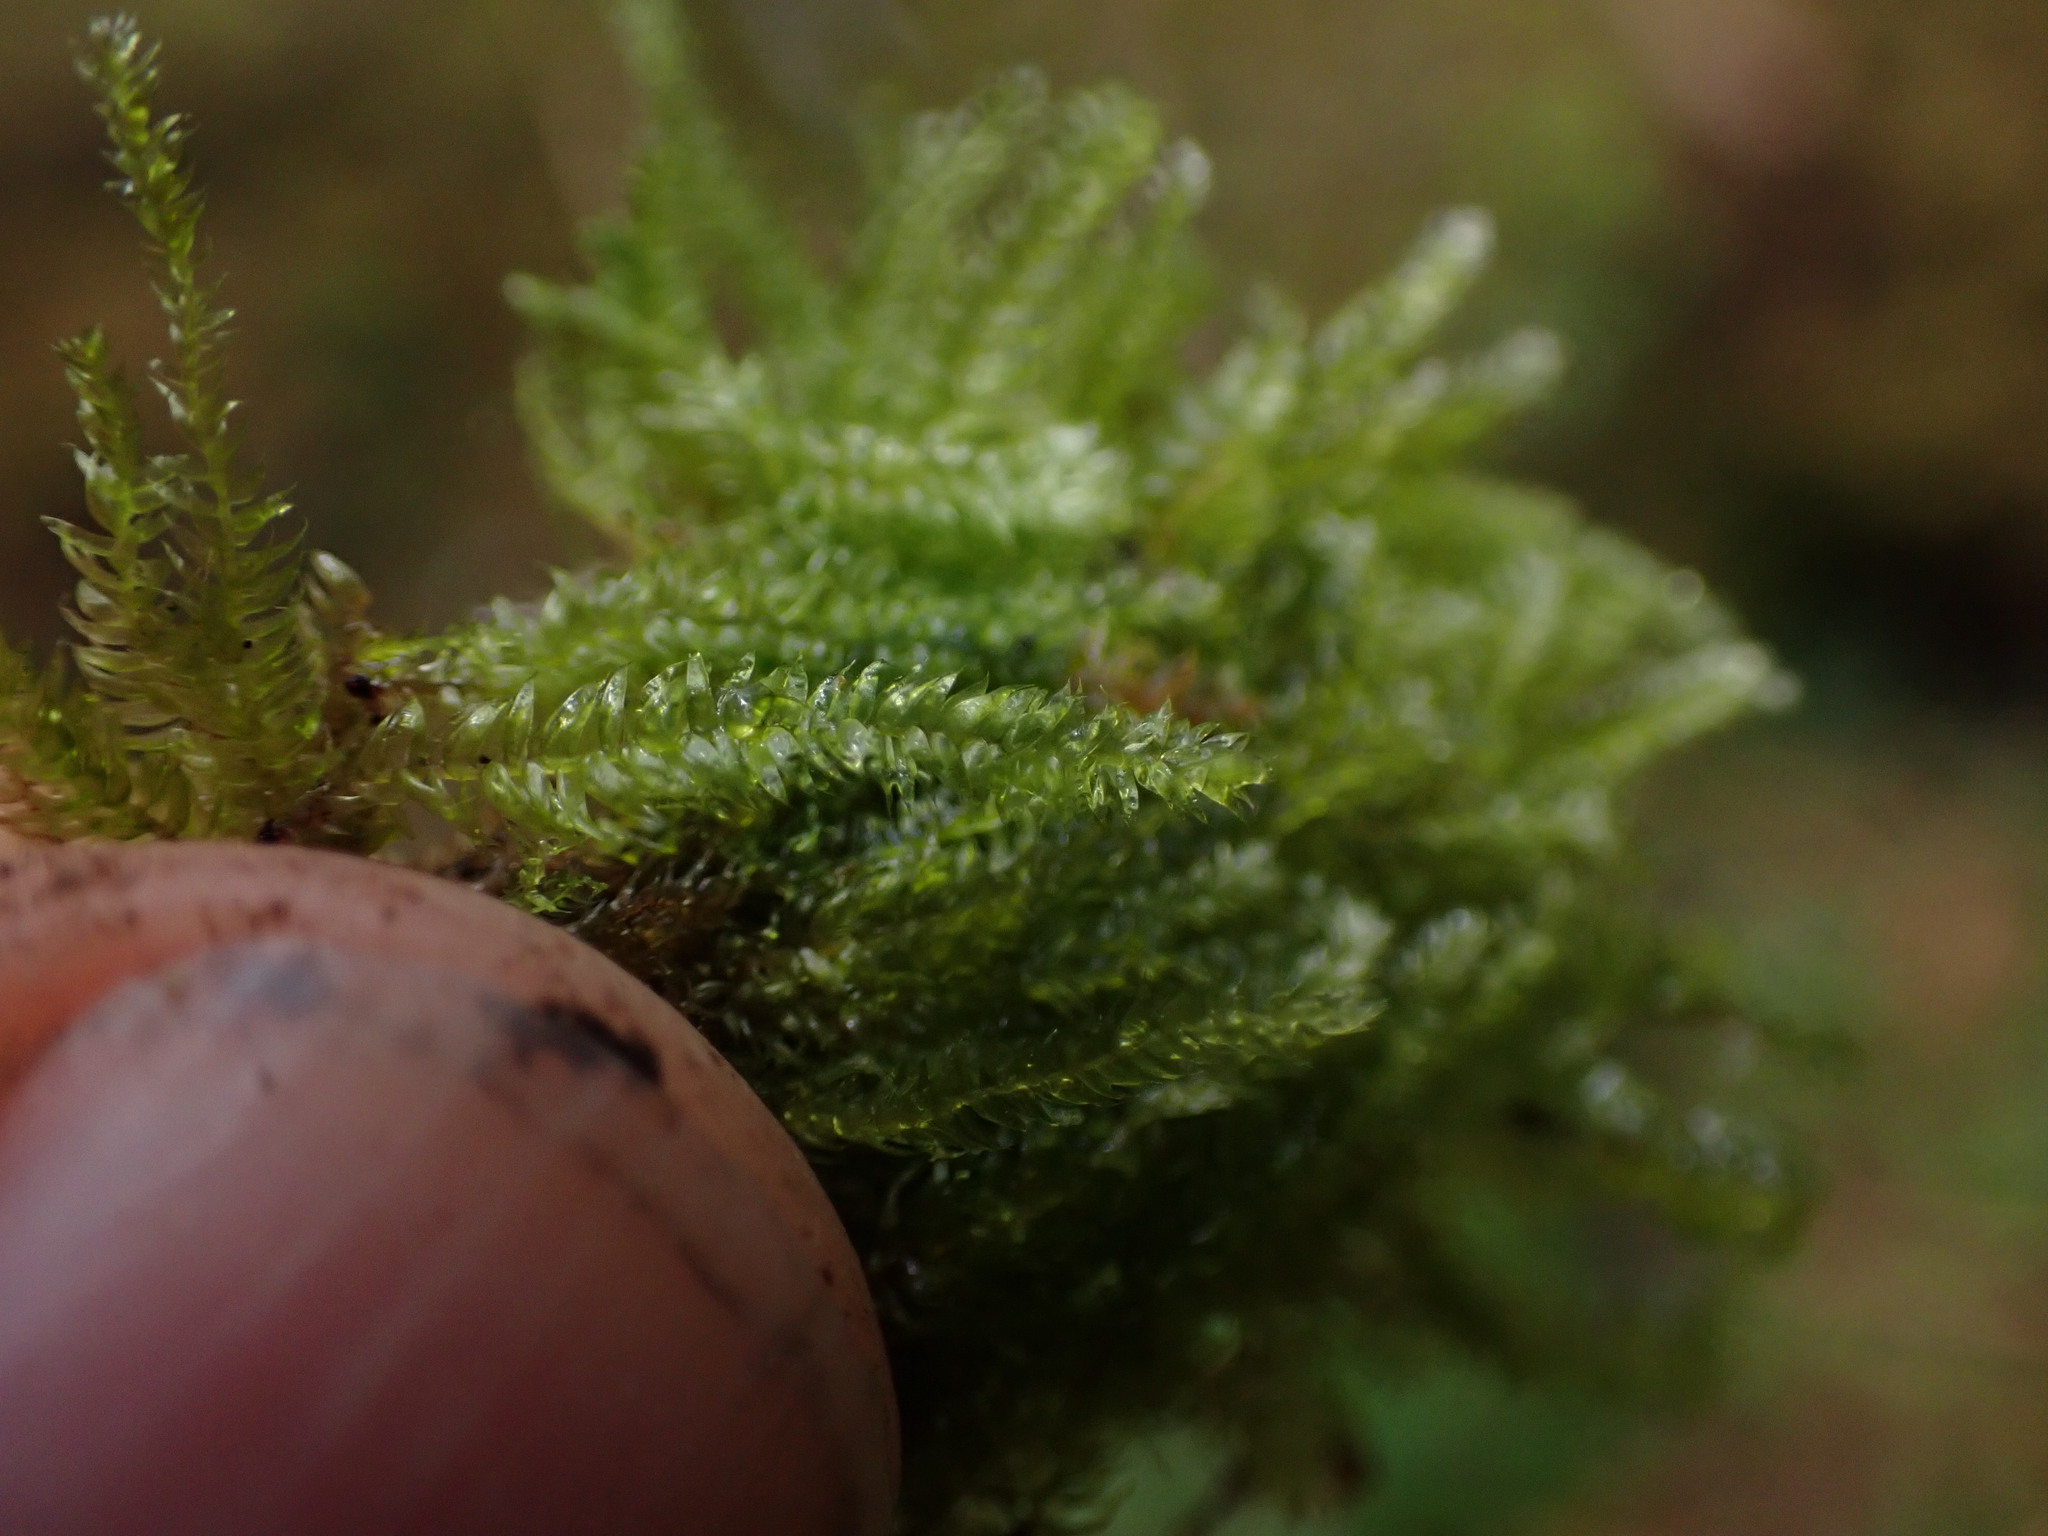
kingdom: Plantae
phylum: Bryophyta
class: Bryopsida
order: Hypnales
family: Plagiotheciaceae
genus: Pseudotaxiphyllum
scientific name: Pseudotaxiphyllum elegans
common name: Elegant silk moss
